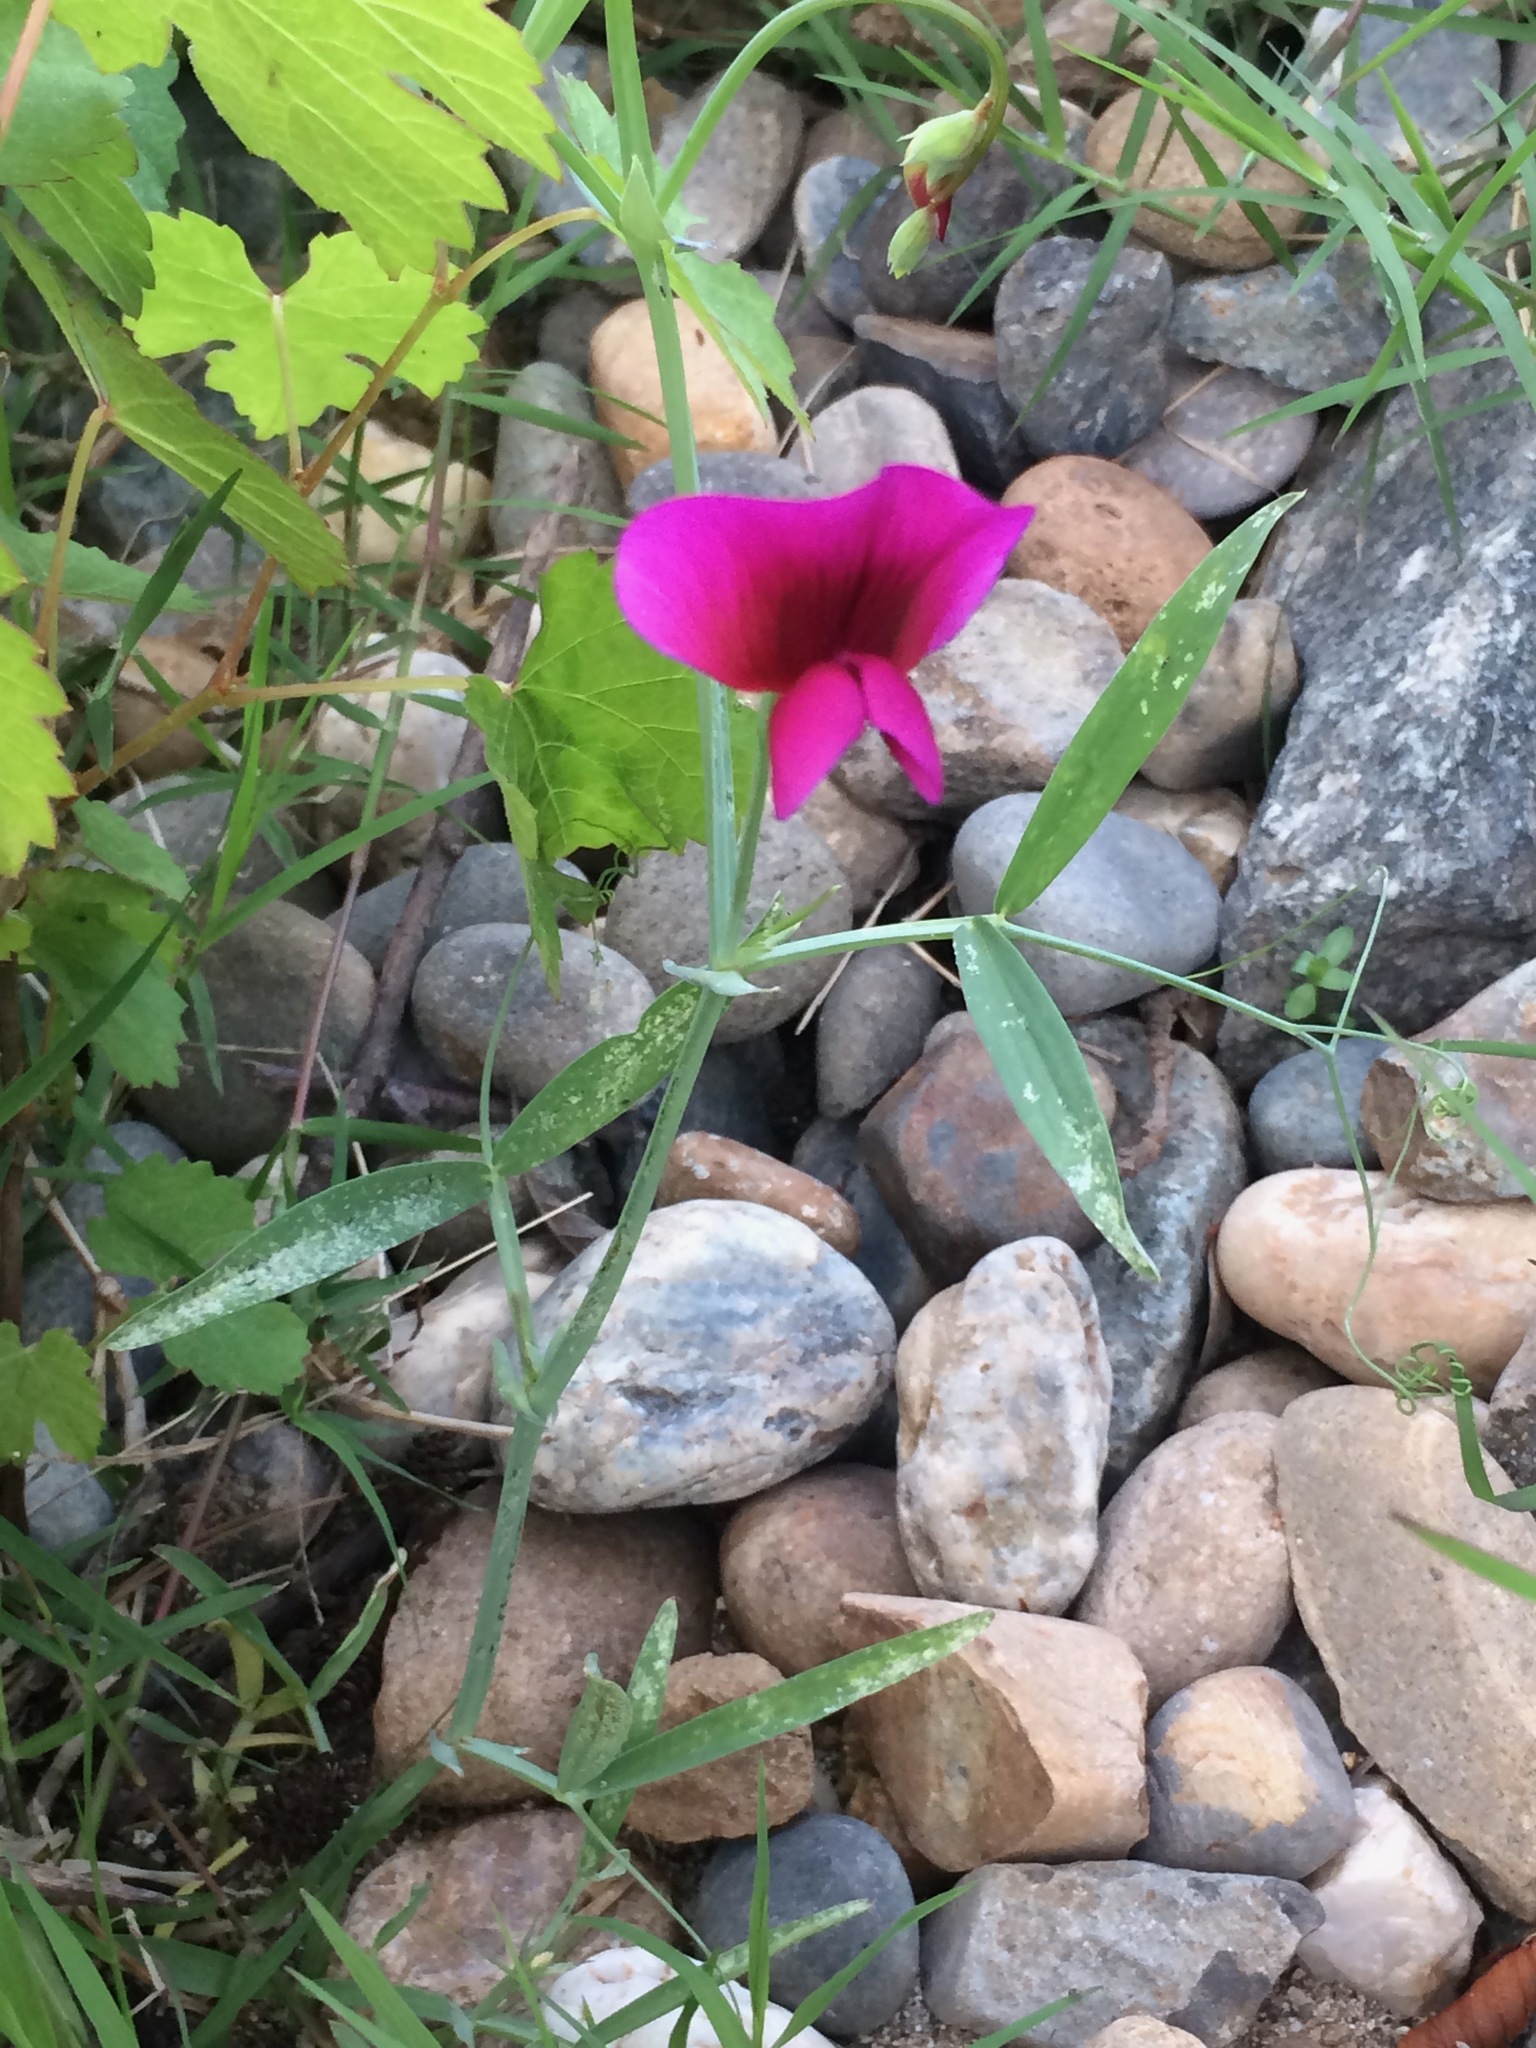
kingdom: Plantae
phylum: Tracheophyta
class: Magnoliopsida
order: Fabales
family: Fabaceae
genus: Lathyrus
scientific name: Lathyrus tingitanus
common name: Tangier pea
